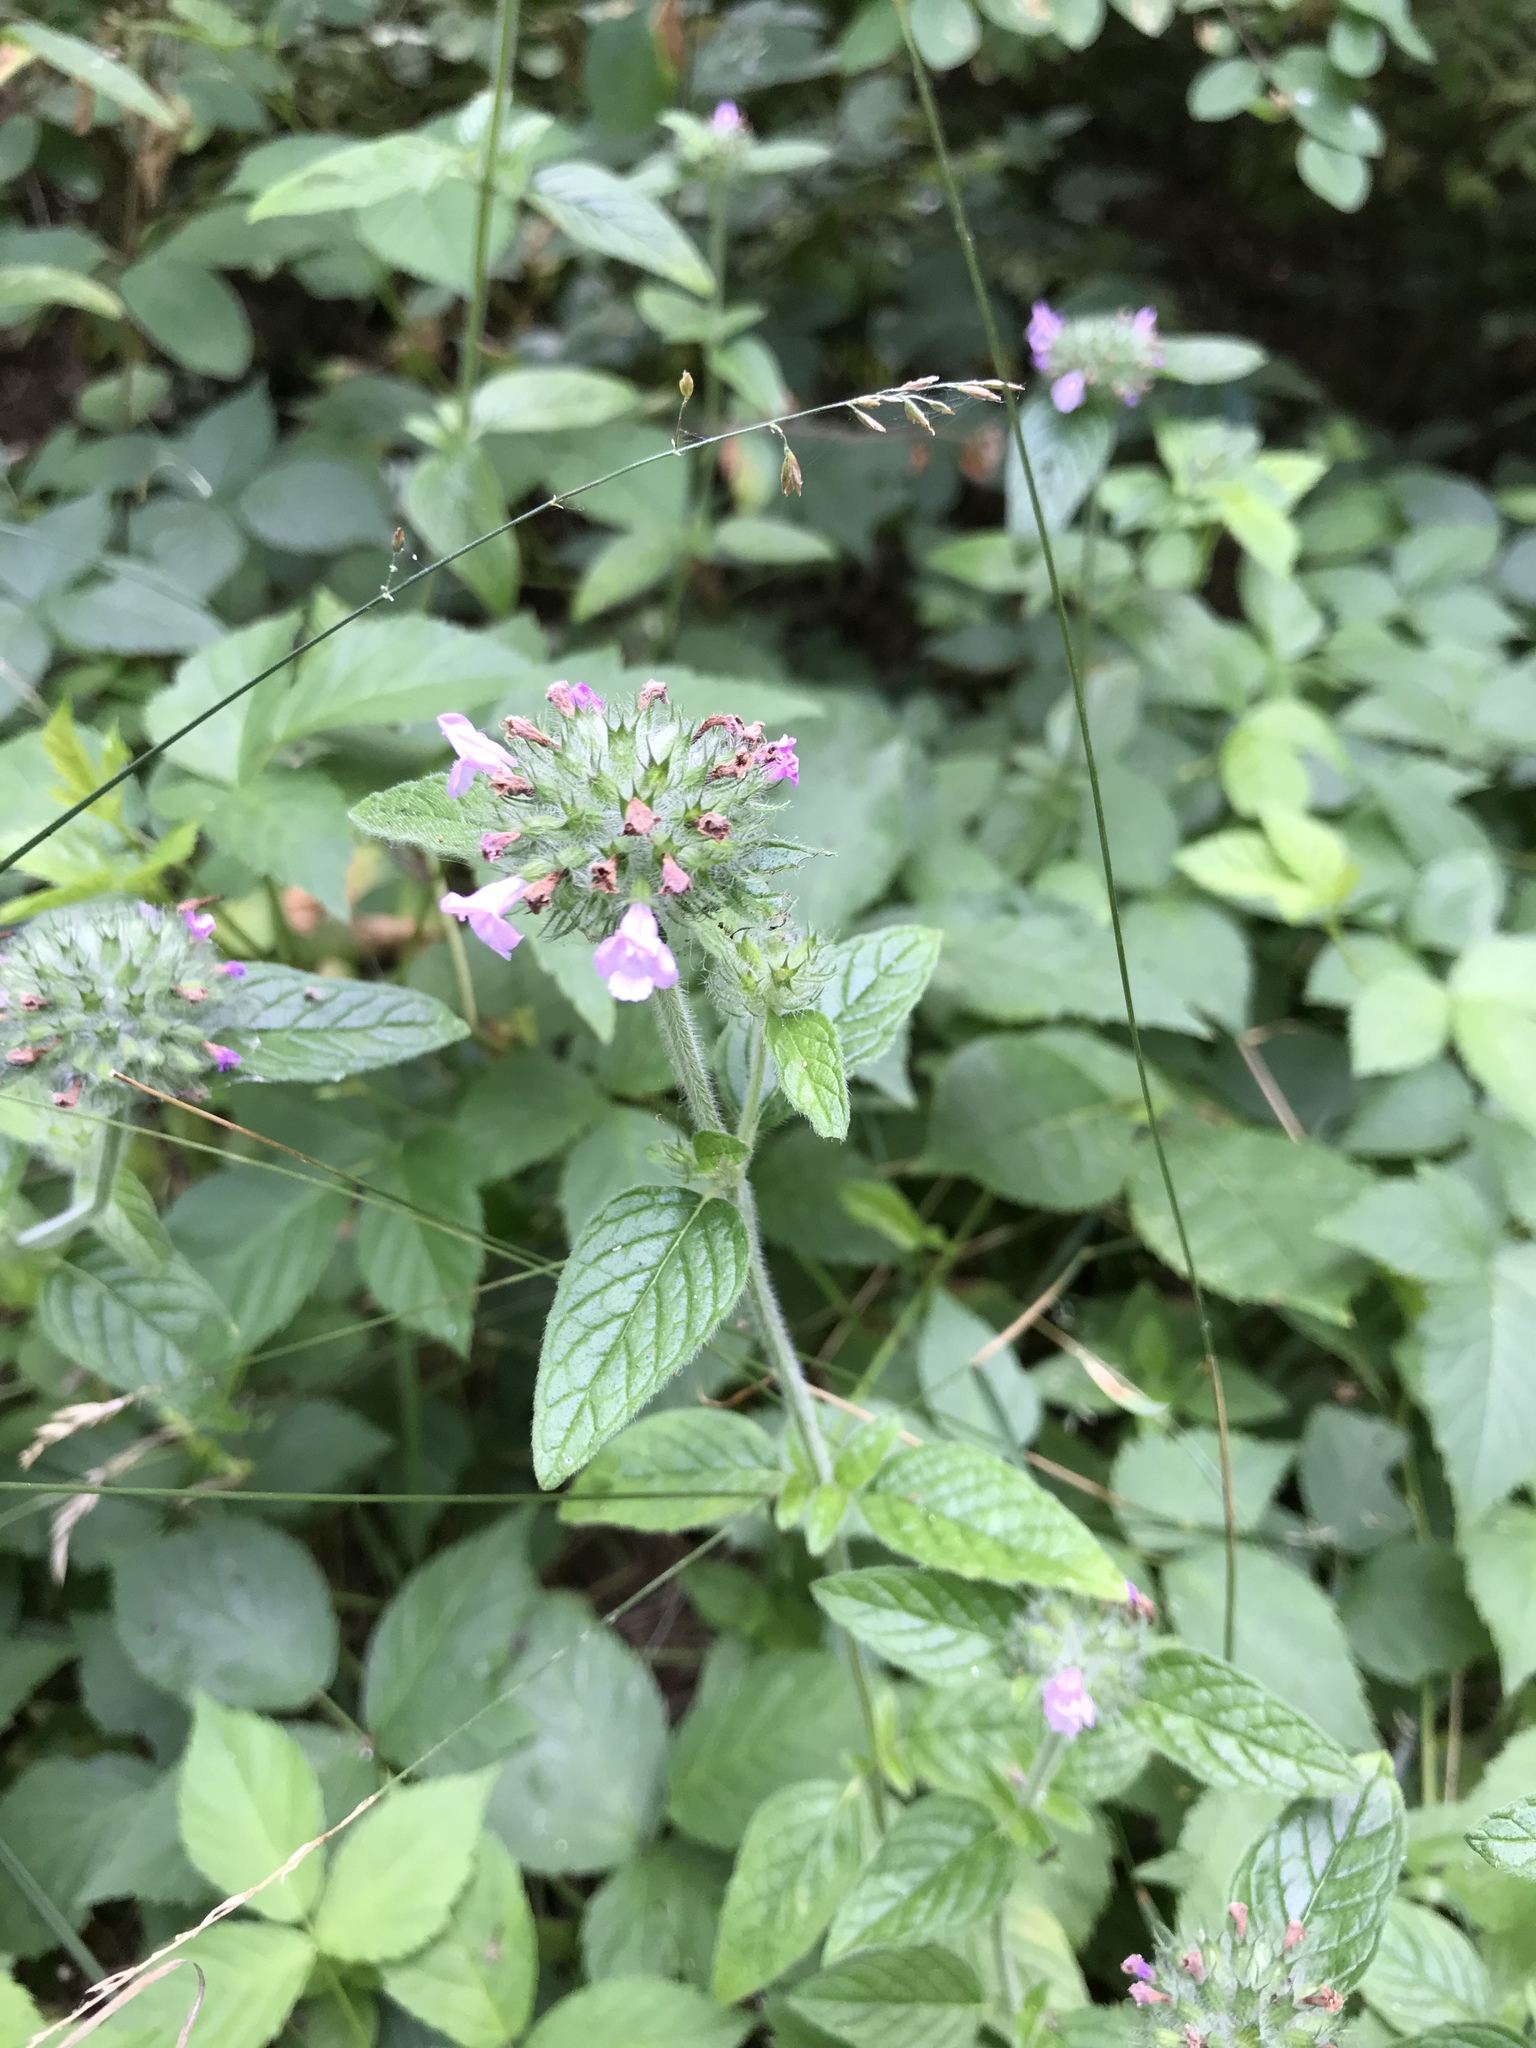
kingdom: Plantae
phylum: Tracheophyta
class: Magnoliopsida
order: Lamiales
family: Lamiaceae
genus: Clinopodium
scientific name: Clinopodium vulgare
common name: Wild basil
